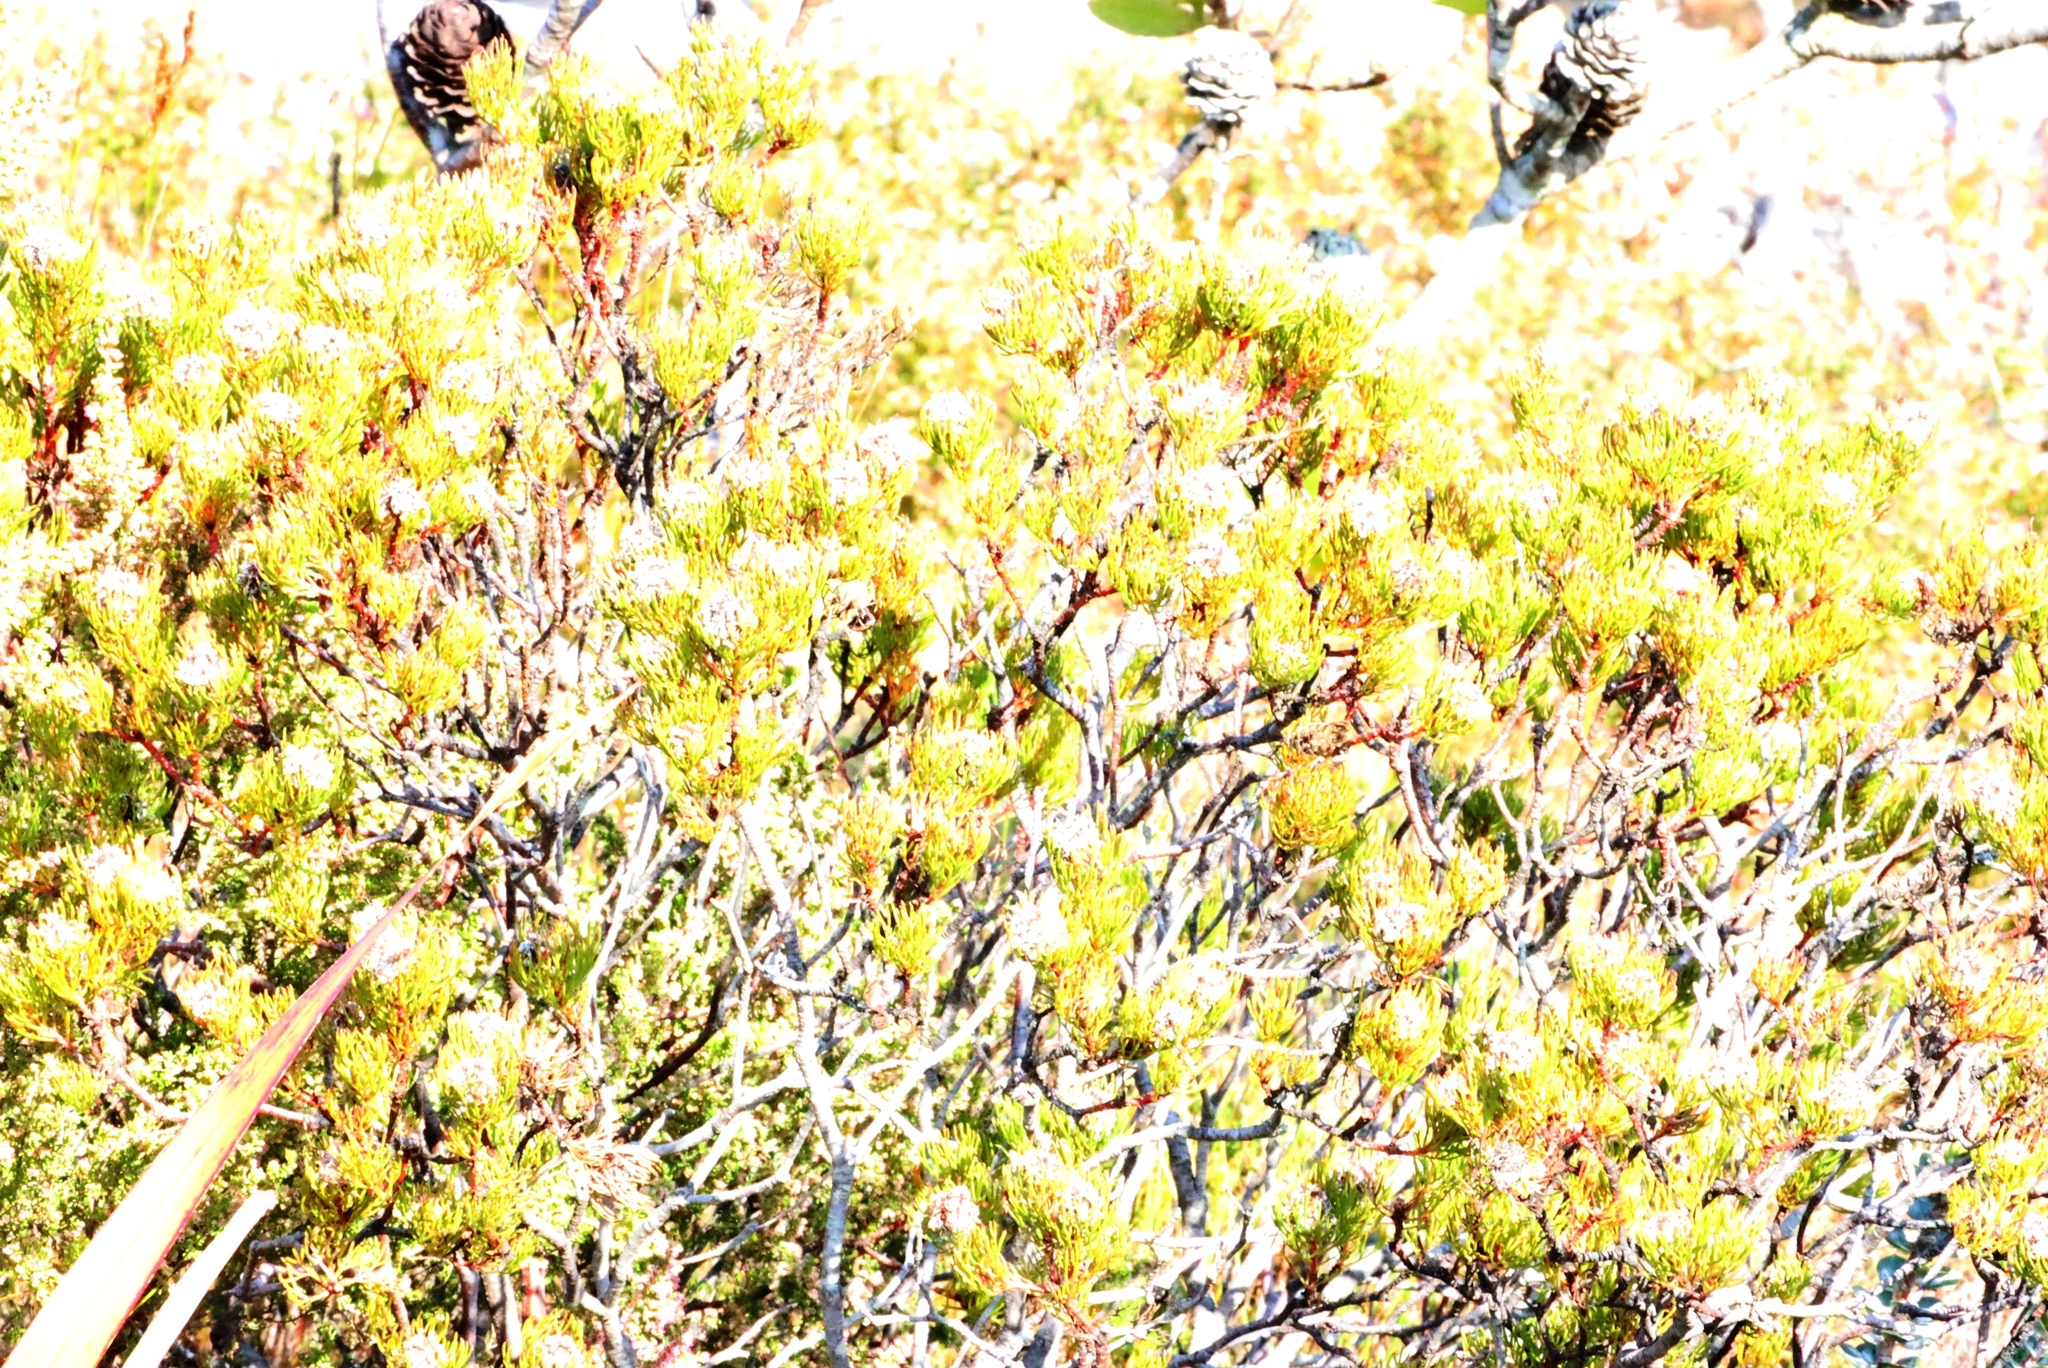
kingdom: Plantae
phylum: Tracheophyta
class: Magnoliopsida
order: Proteales
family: Proteaceae
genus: Serruria
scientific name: Serruria villosa
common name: Golden spiderhead
